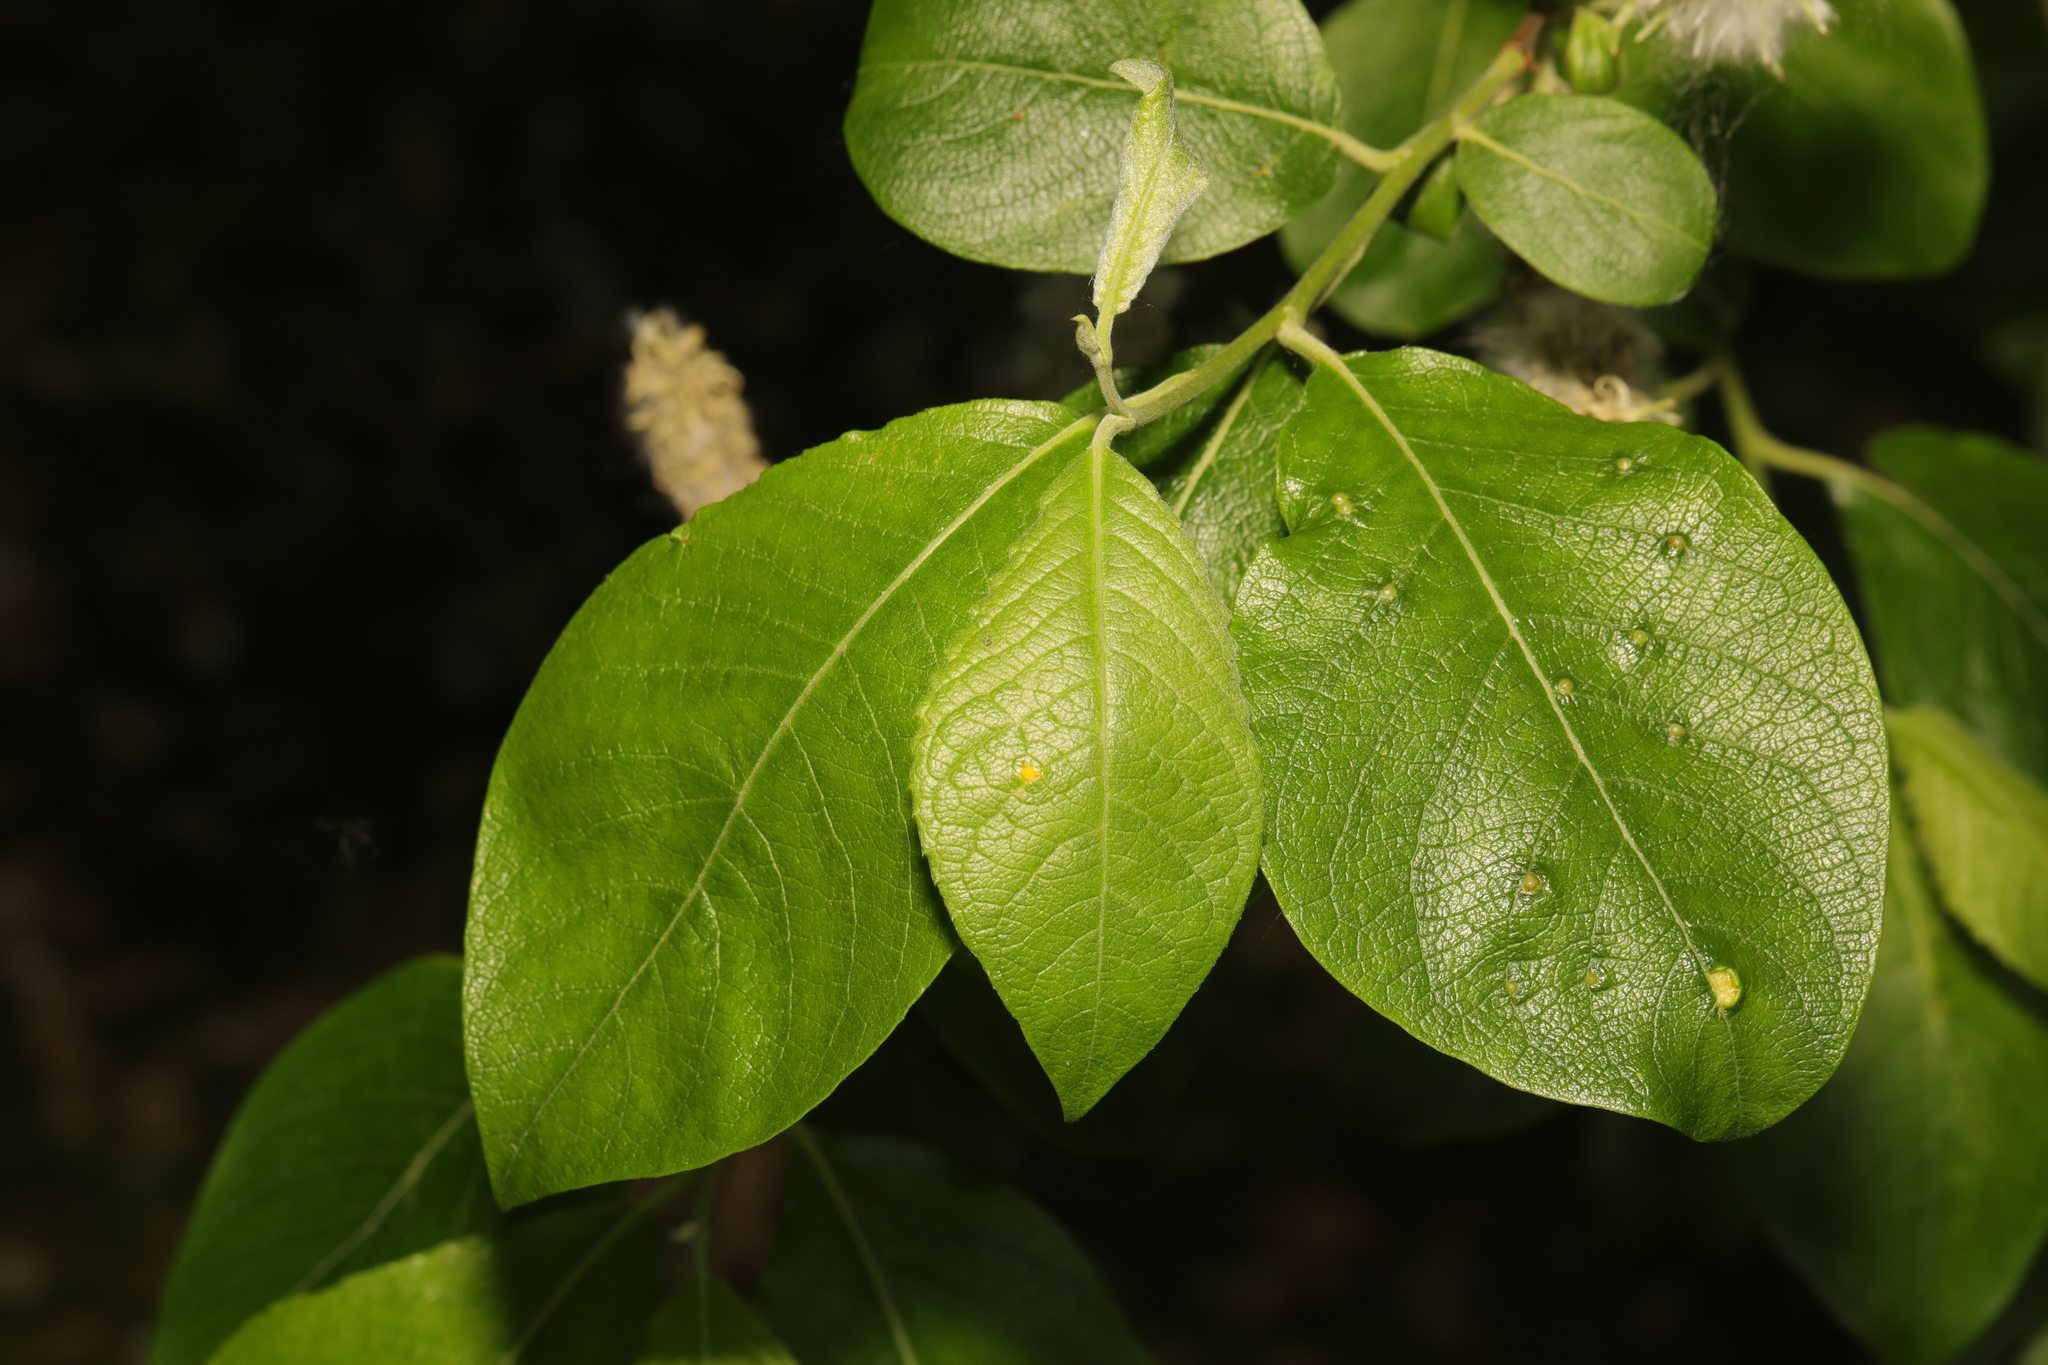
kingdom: Animalia
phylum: Arthropoda
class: Insecta
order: Hymenoptera
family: Tenthredinidae
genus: Pontania
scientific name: Pontania pedunculi
